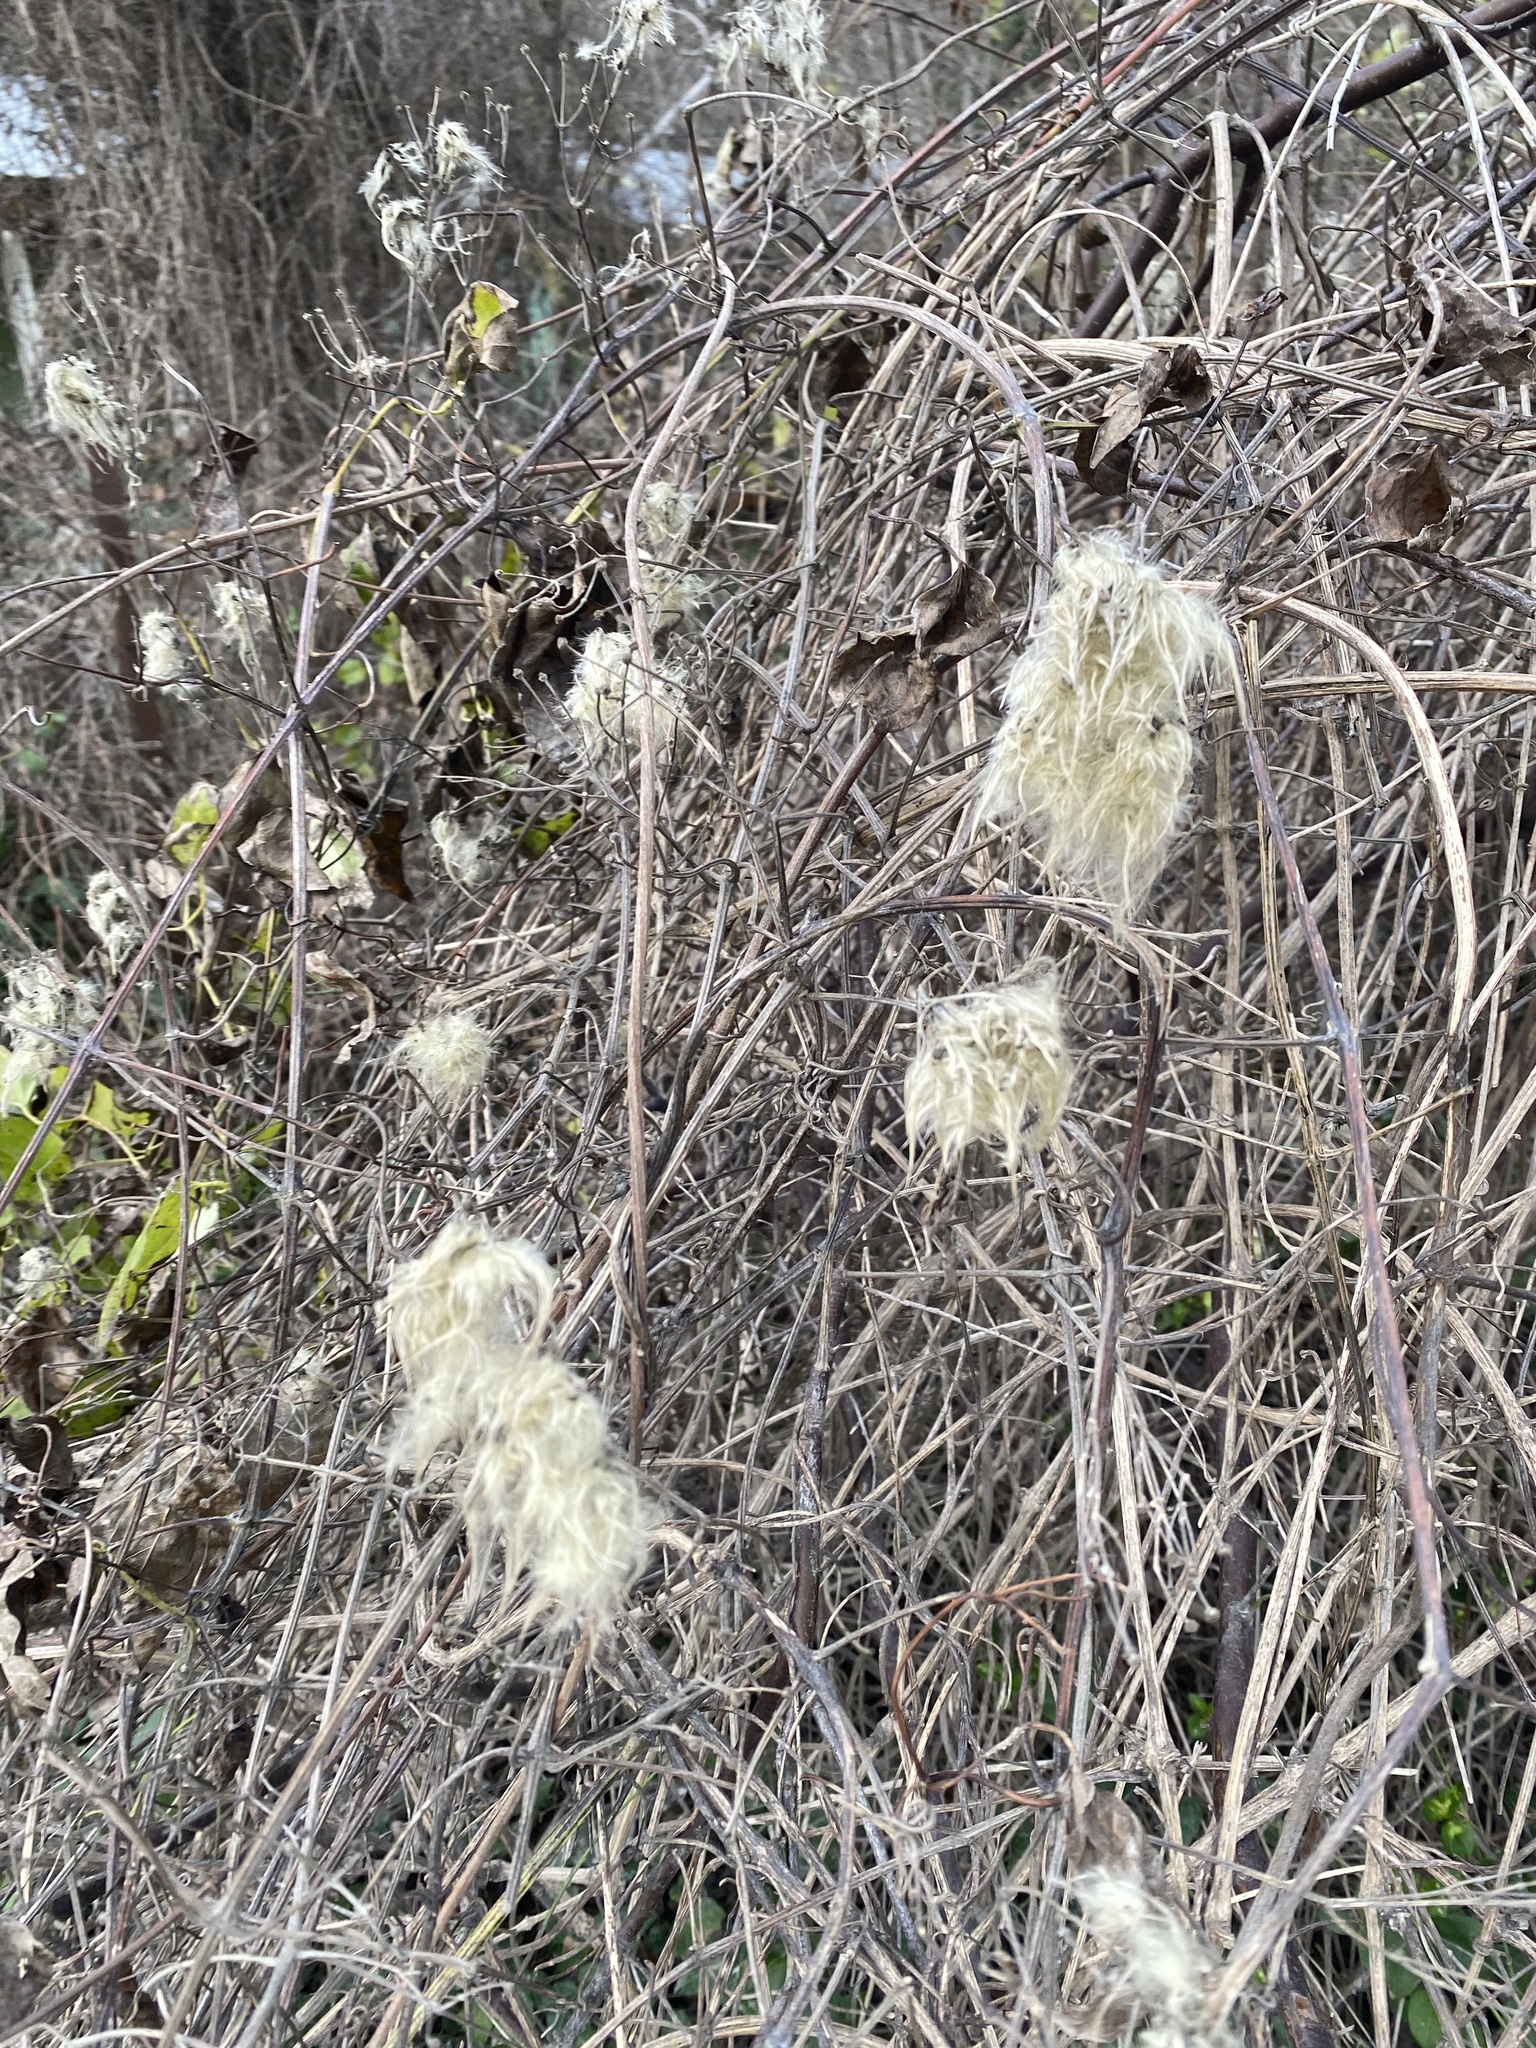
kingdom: Plantae
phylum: Tracheophyta
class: Magnoliopsida
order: Ranunculales
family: Ranunculaceae
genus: Clematis
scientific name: Clematis vitalba
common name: Evergreen clematis
